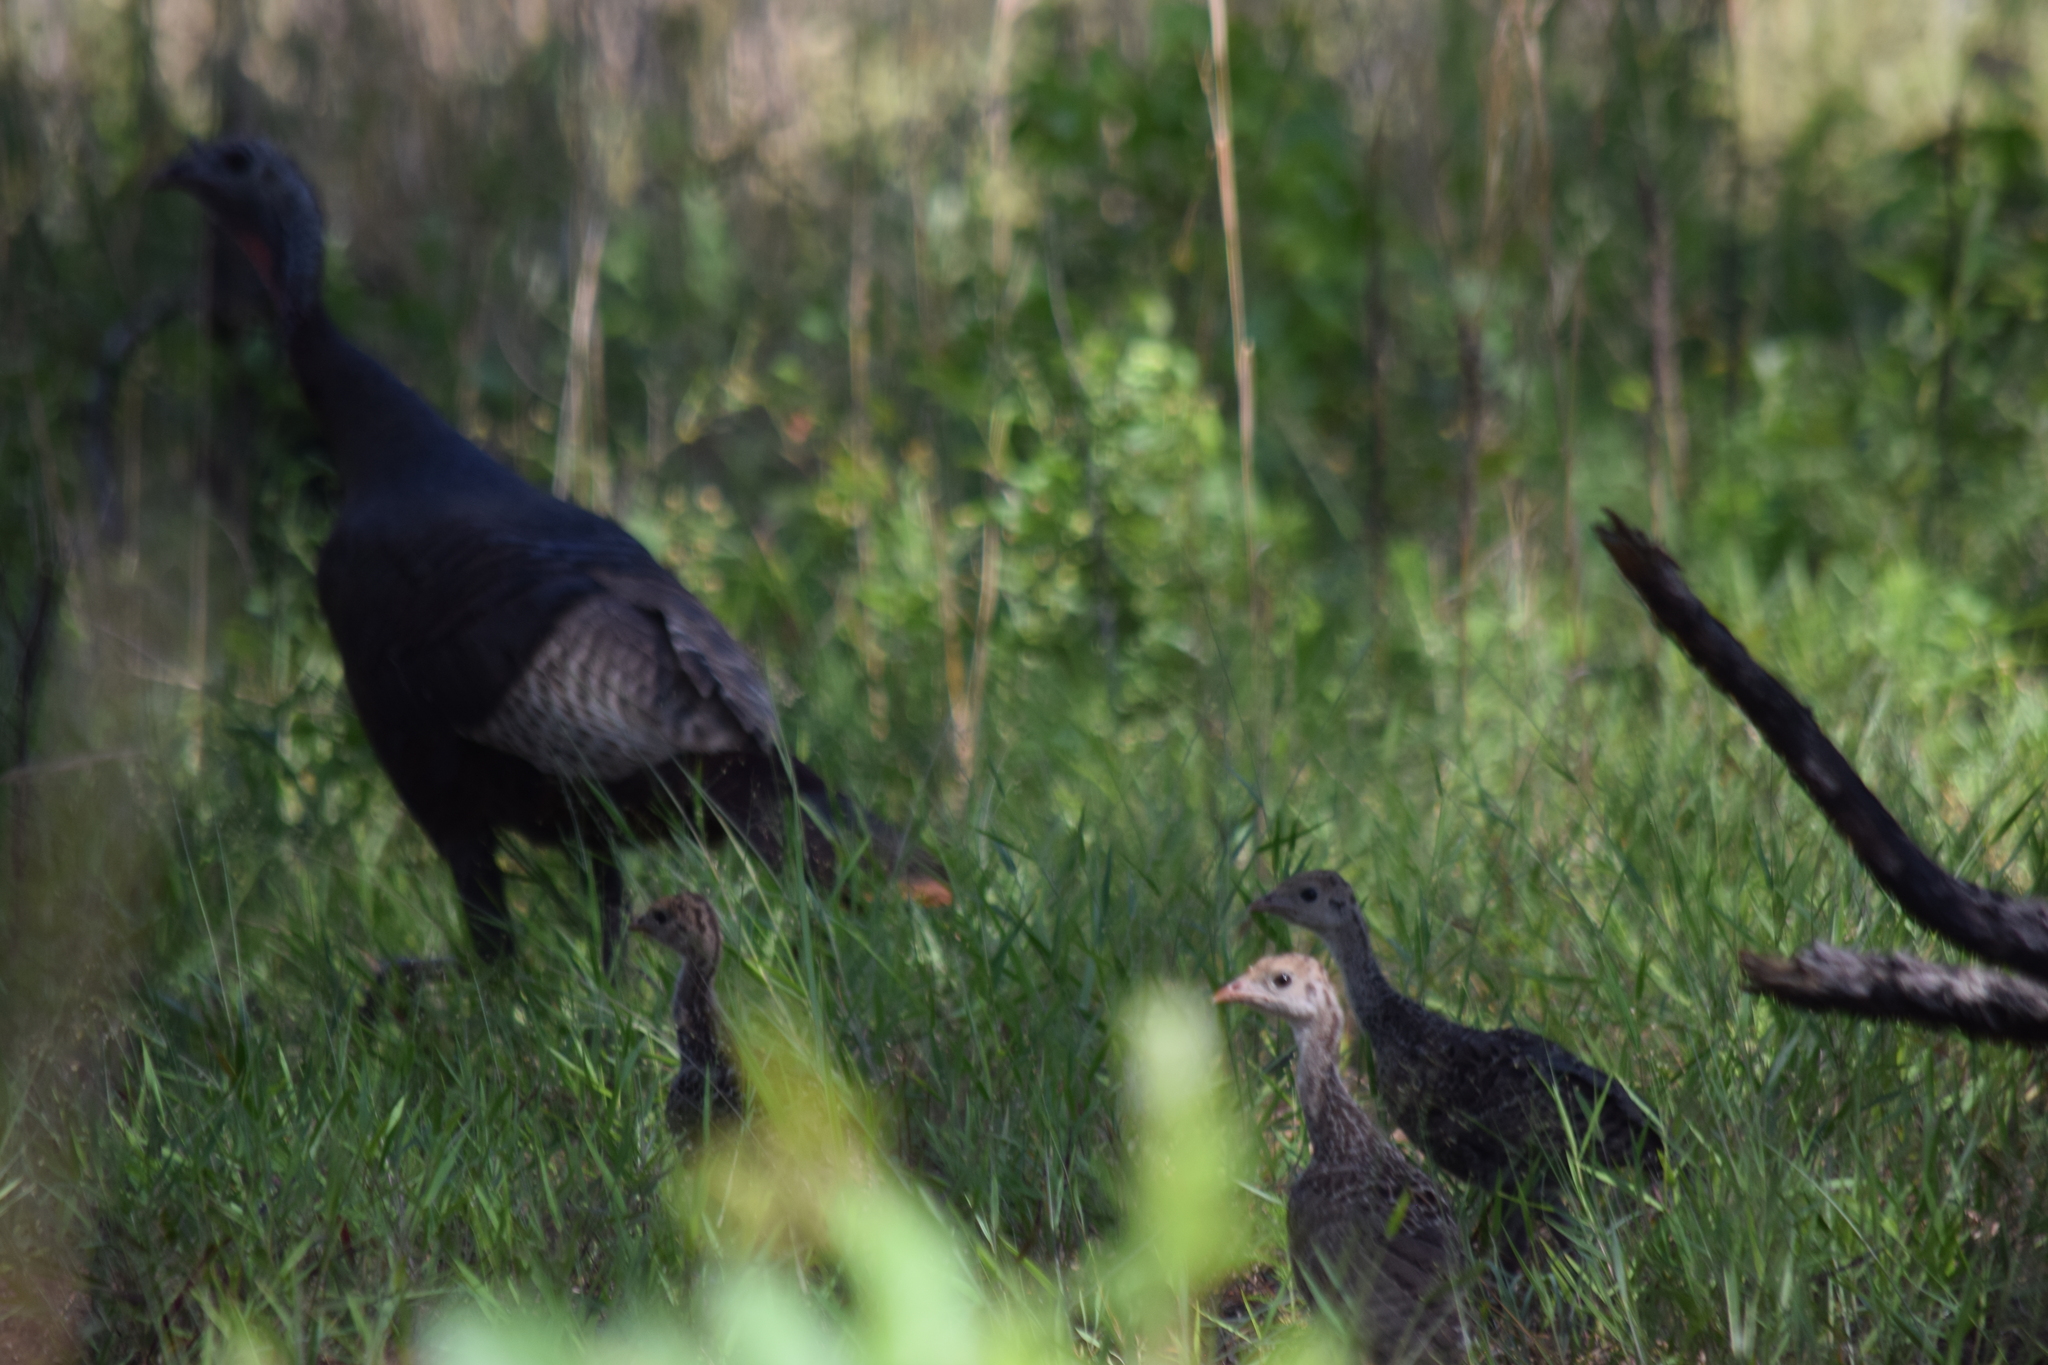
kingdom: Animalia
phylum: Chordata
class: Aves
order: Galliformes
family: Phasianidae
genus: Meleagris
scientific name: Meleagris gallopavo
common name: Wild turkey
